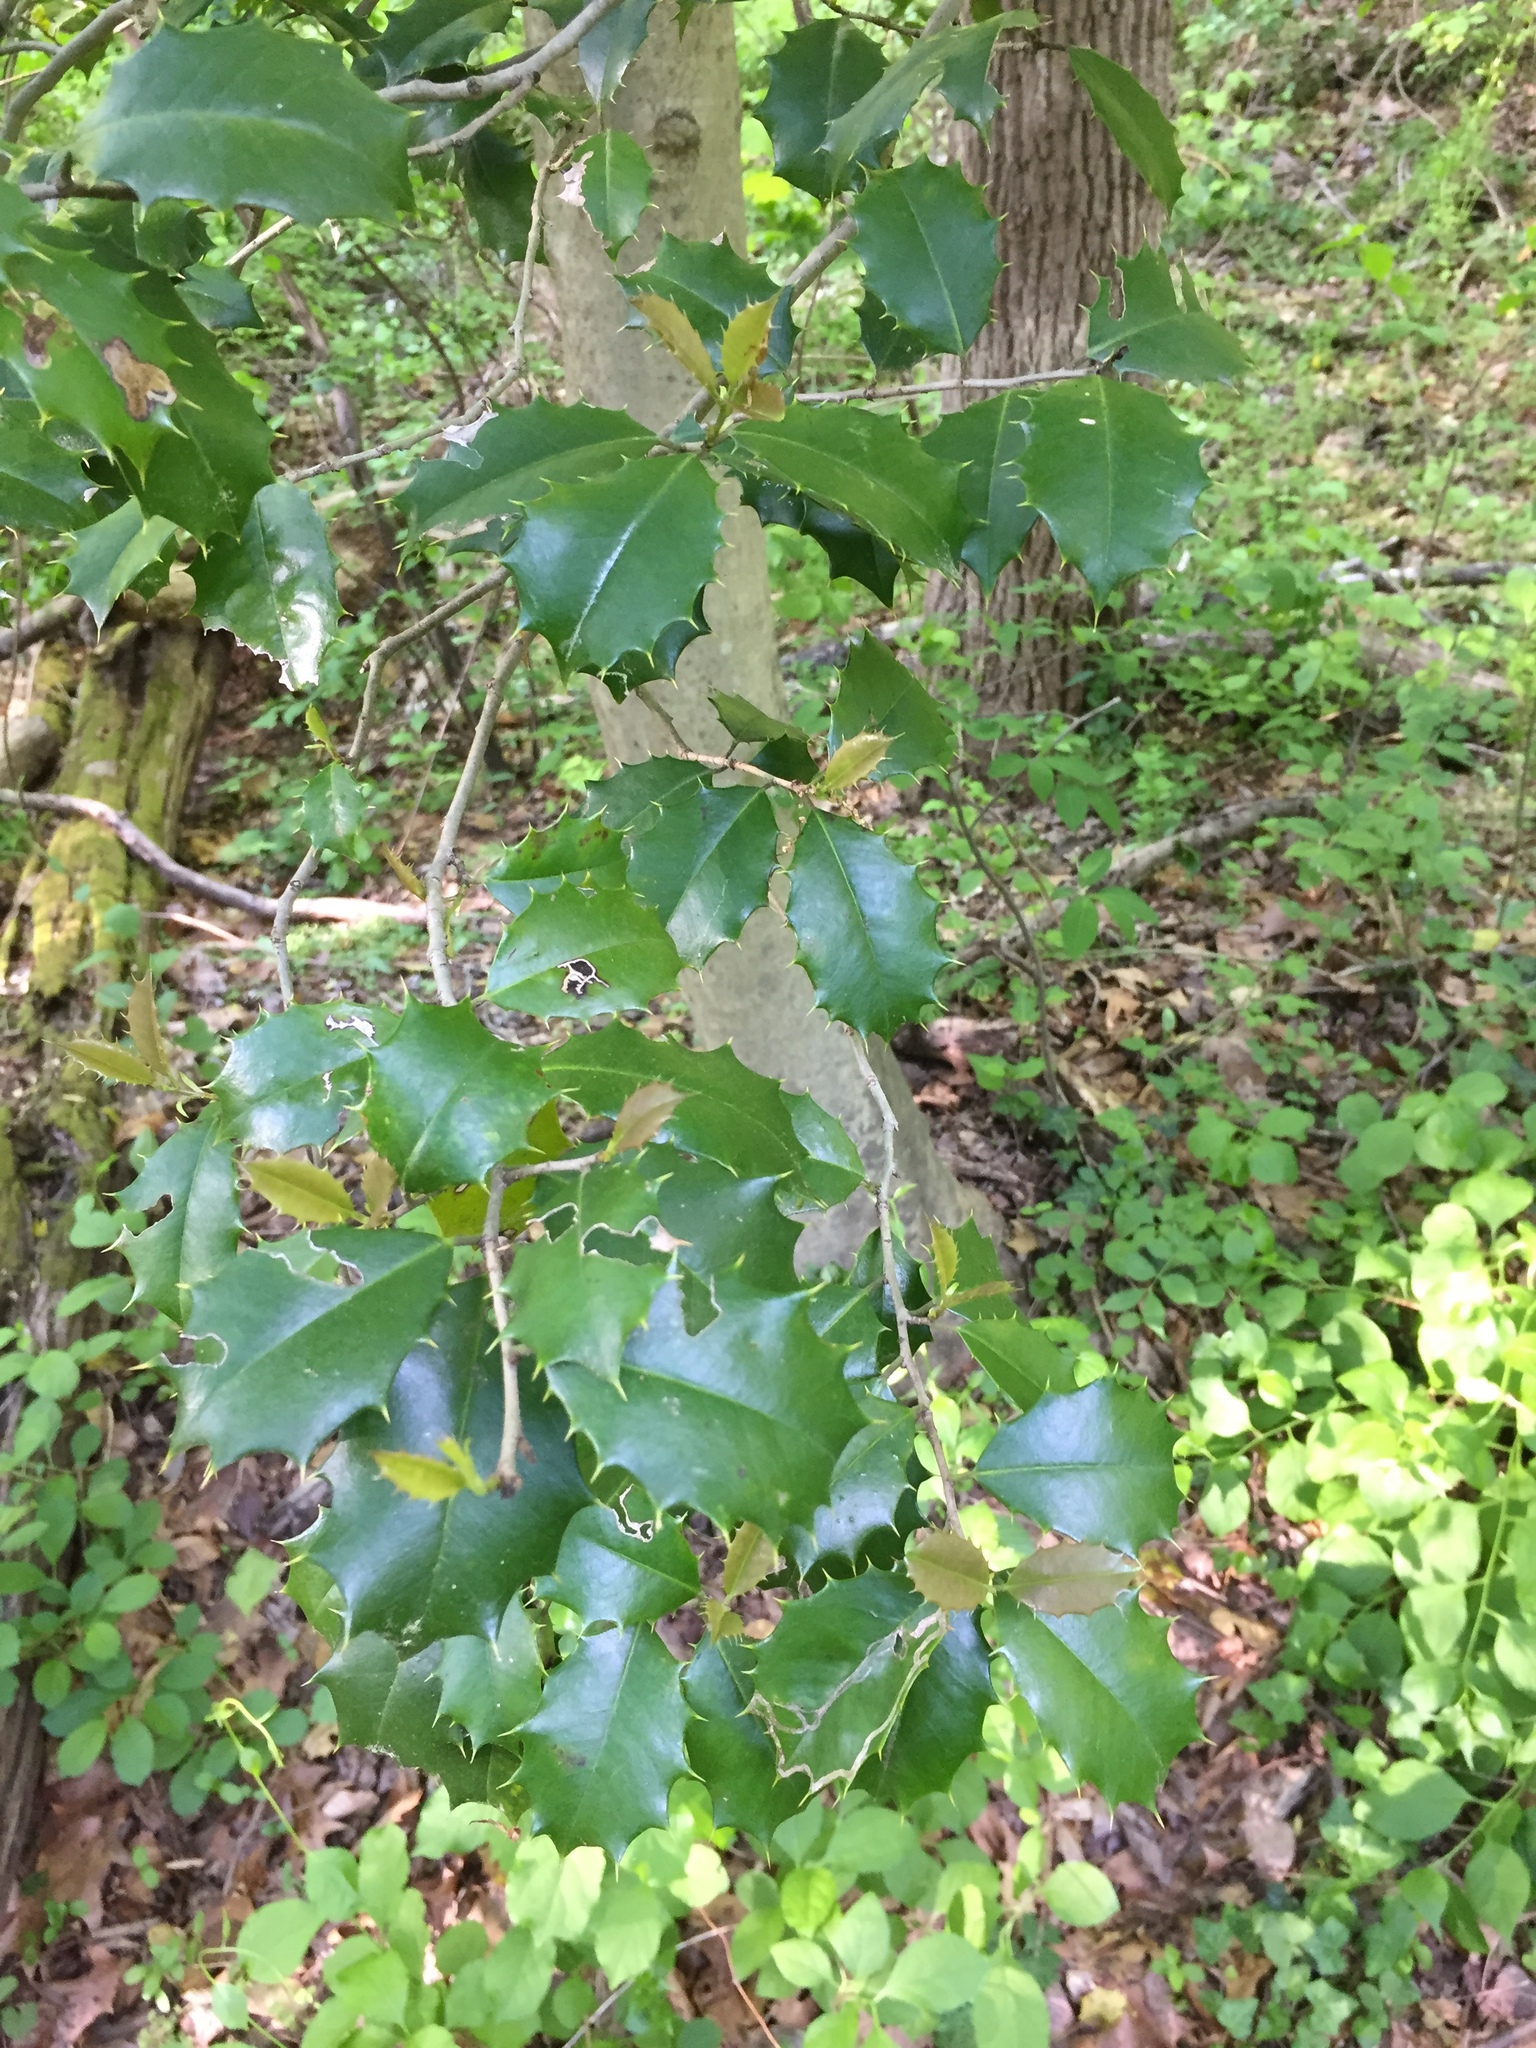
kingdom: Plantae
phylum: Tracheophyta
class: Magnoliopsida
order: Aquifoliales
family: Aquifoliaceae
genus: Ilex
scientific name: Ilex opaca
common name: American holly
